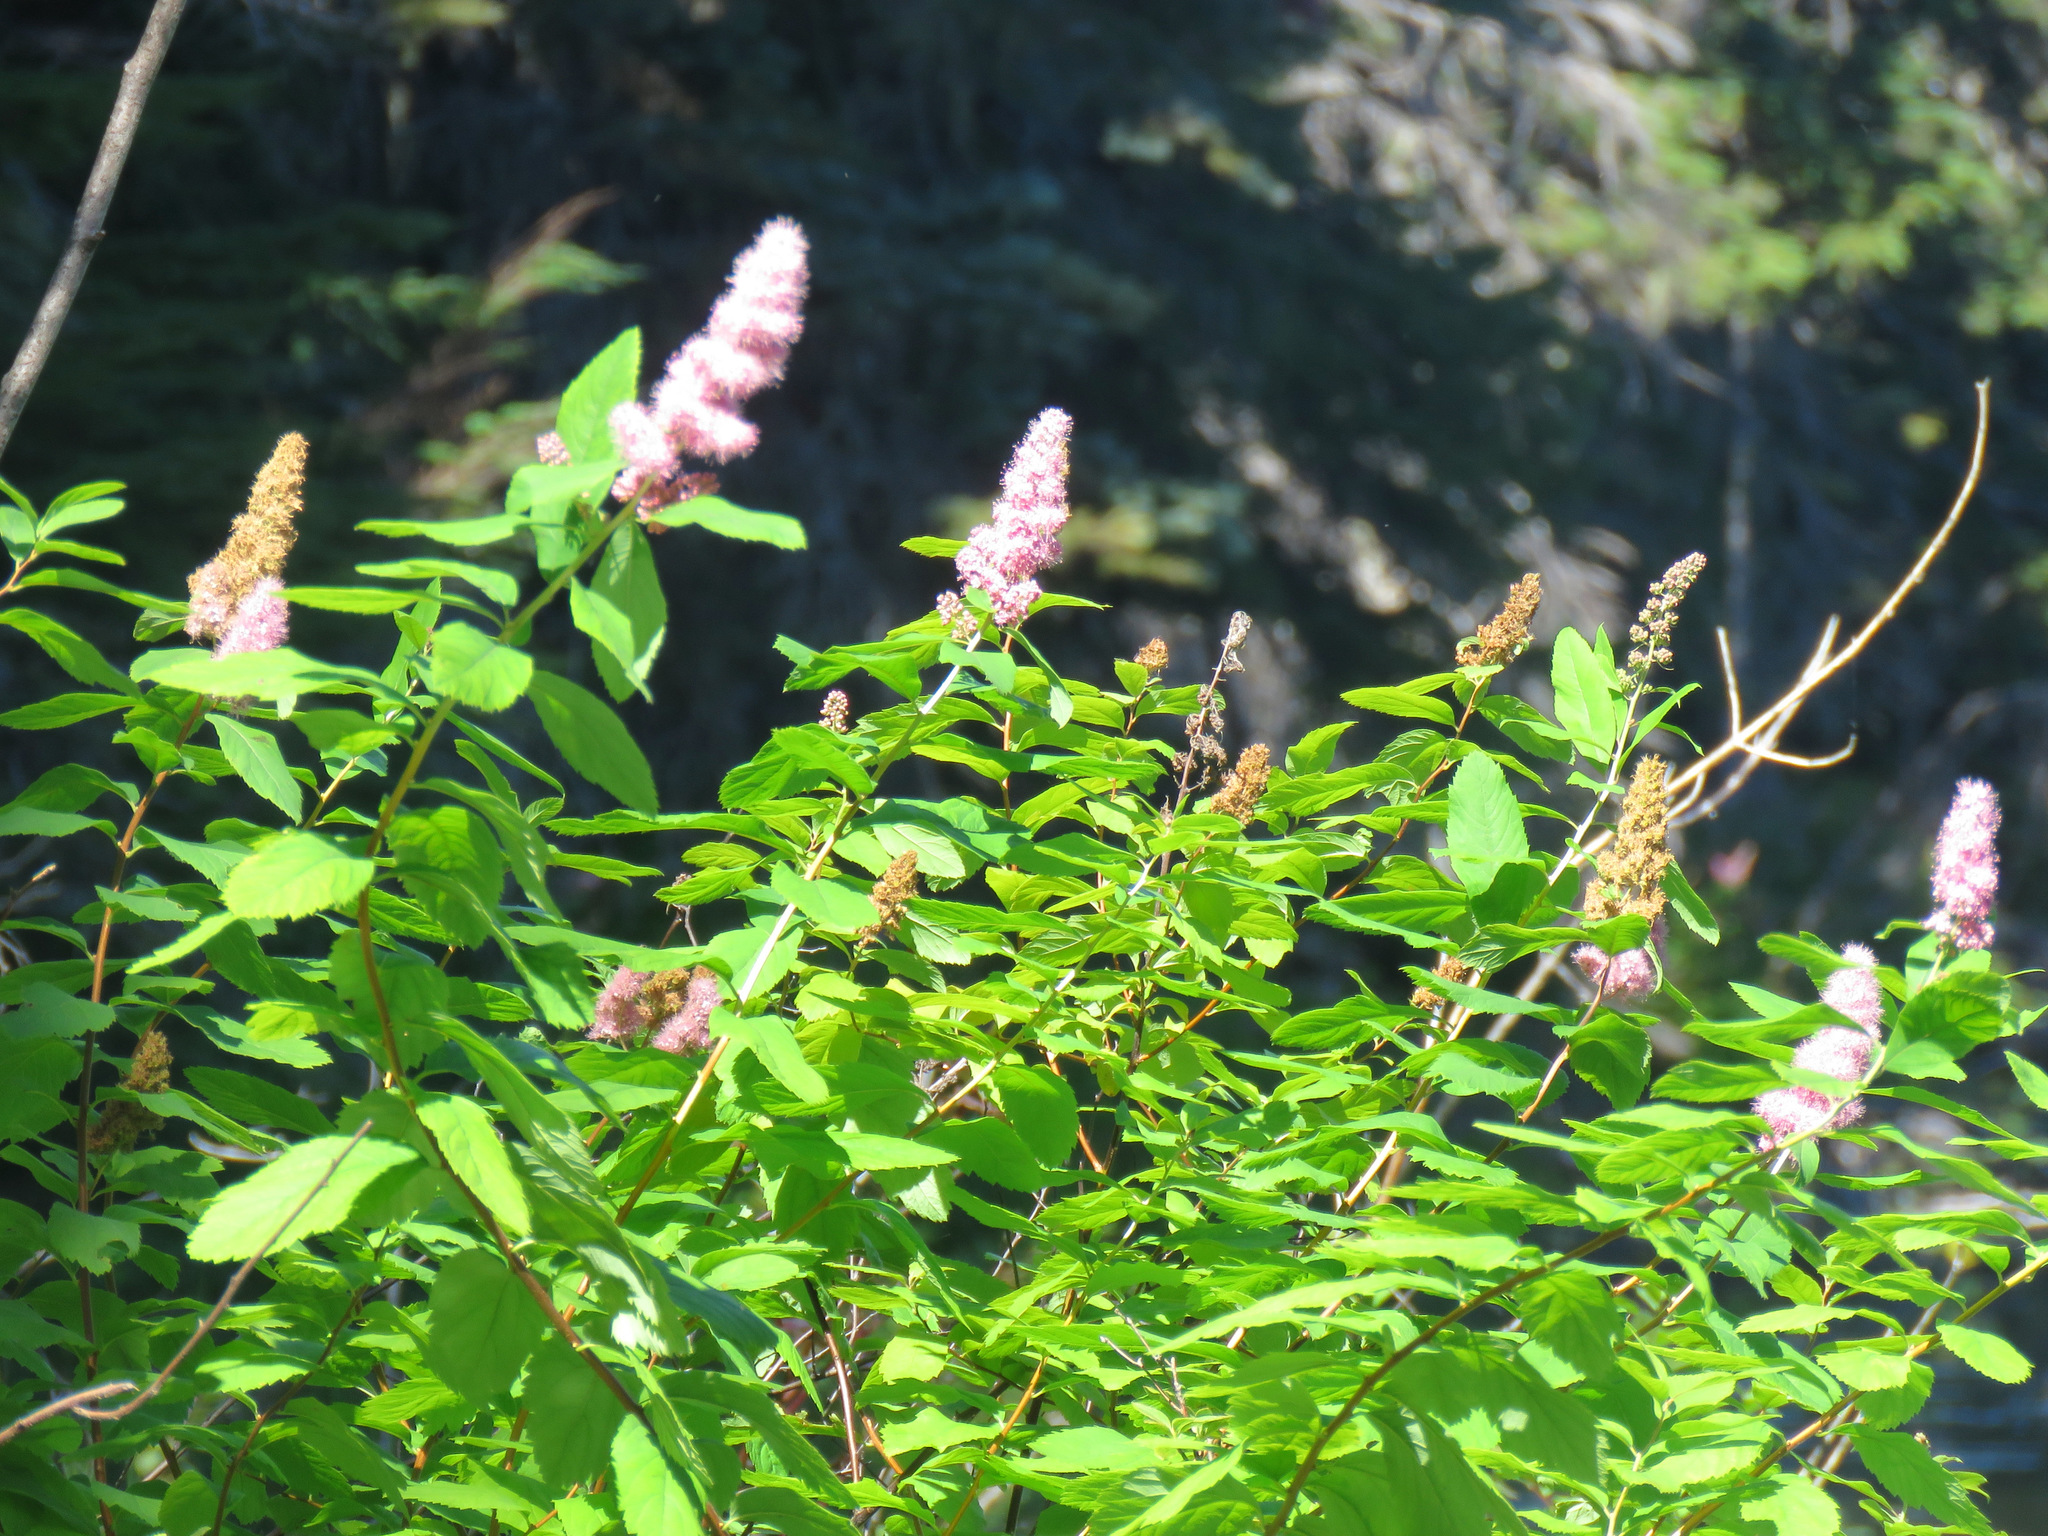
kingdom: Plantae
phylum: Tracheophyta
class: Magnoliopsida
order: Rosales
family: Rosaceae
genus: Spiraea
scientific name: Spiraea douglasii
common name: Steeplebush
